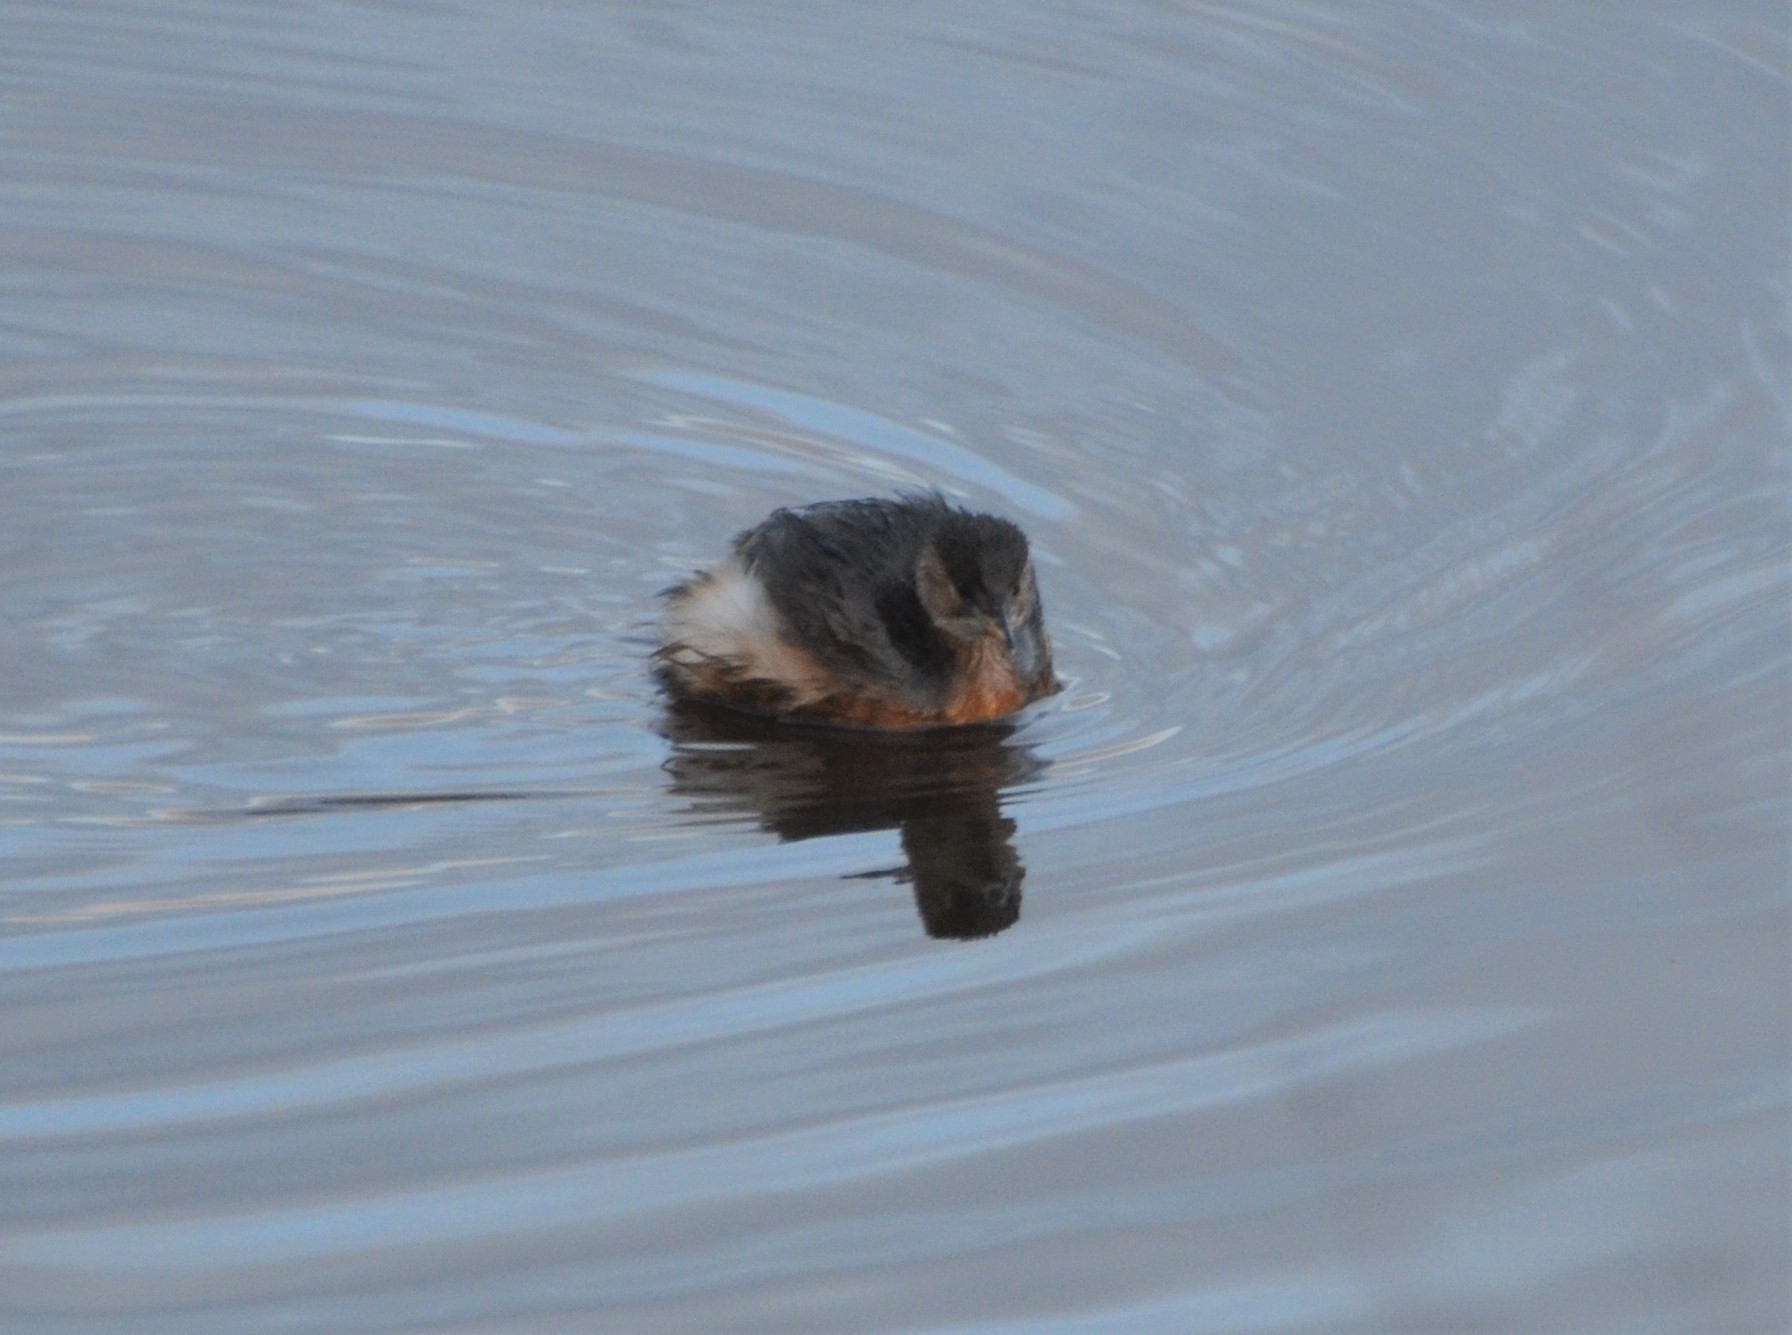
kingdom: Animalia
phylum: Chordata
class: Aves
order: Podicipediformes
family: Podicipedidae
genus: Tachybaptus
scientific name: Tachybaptus ruficollis
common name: Little grebe
